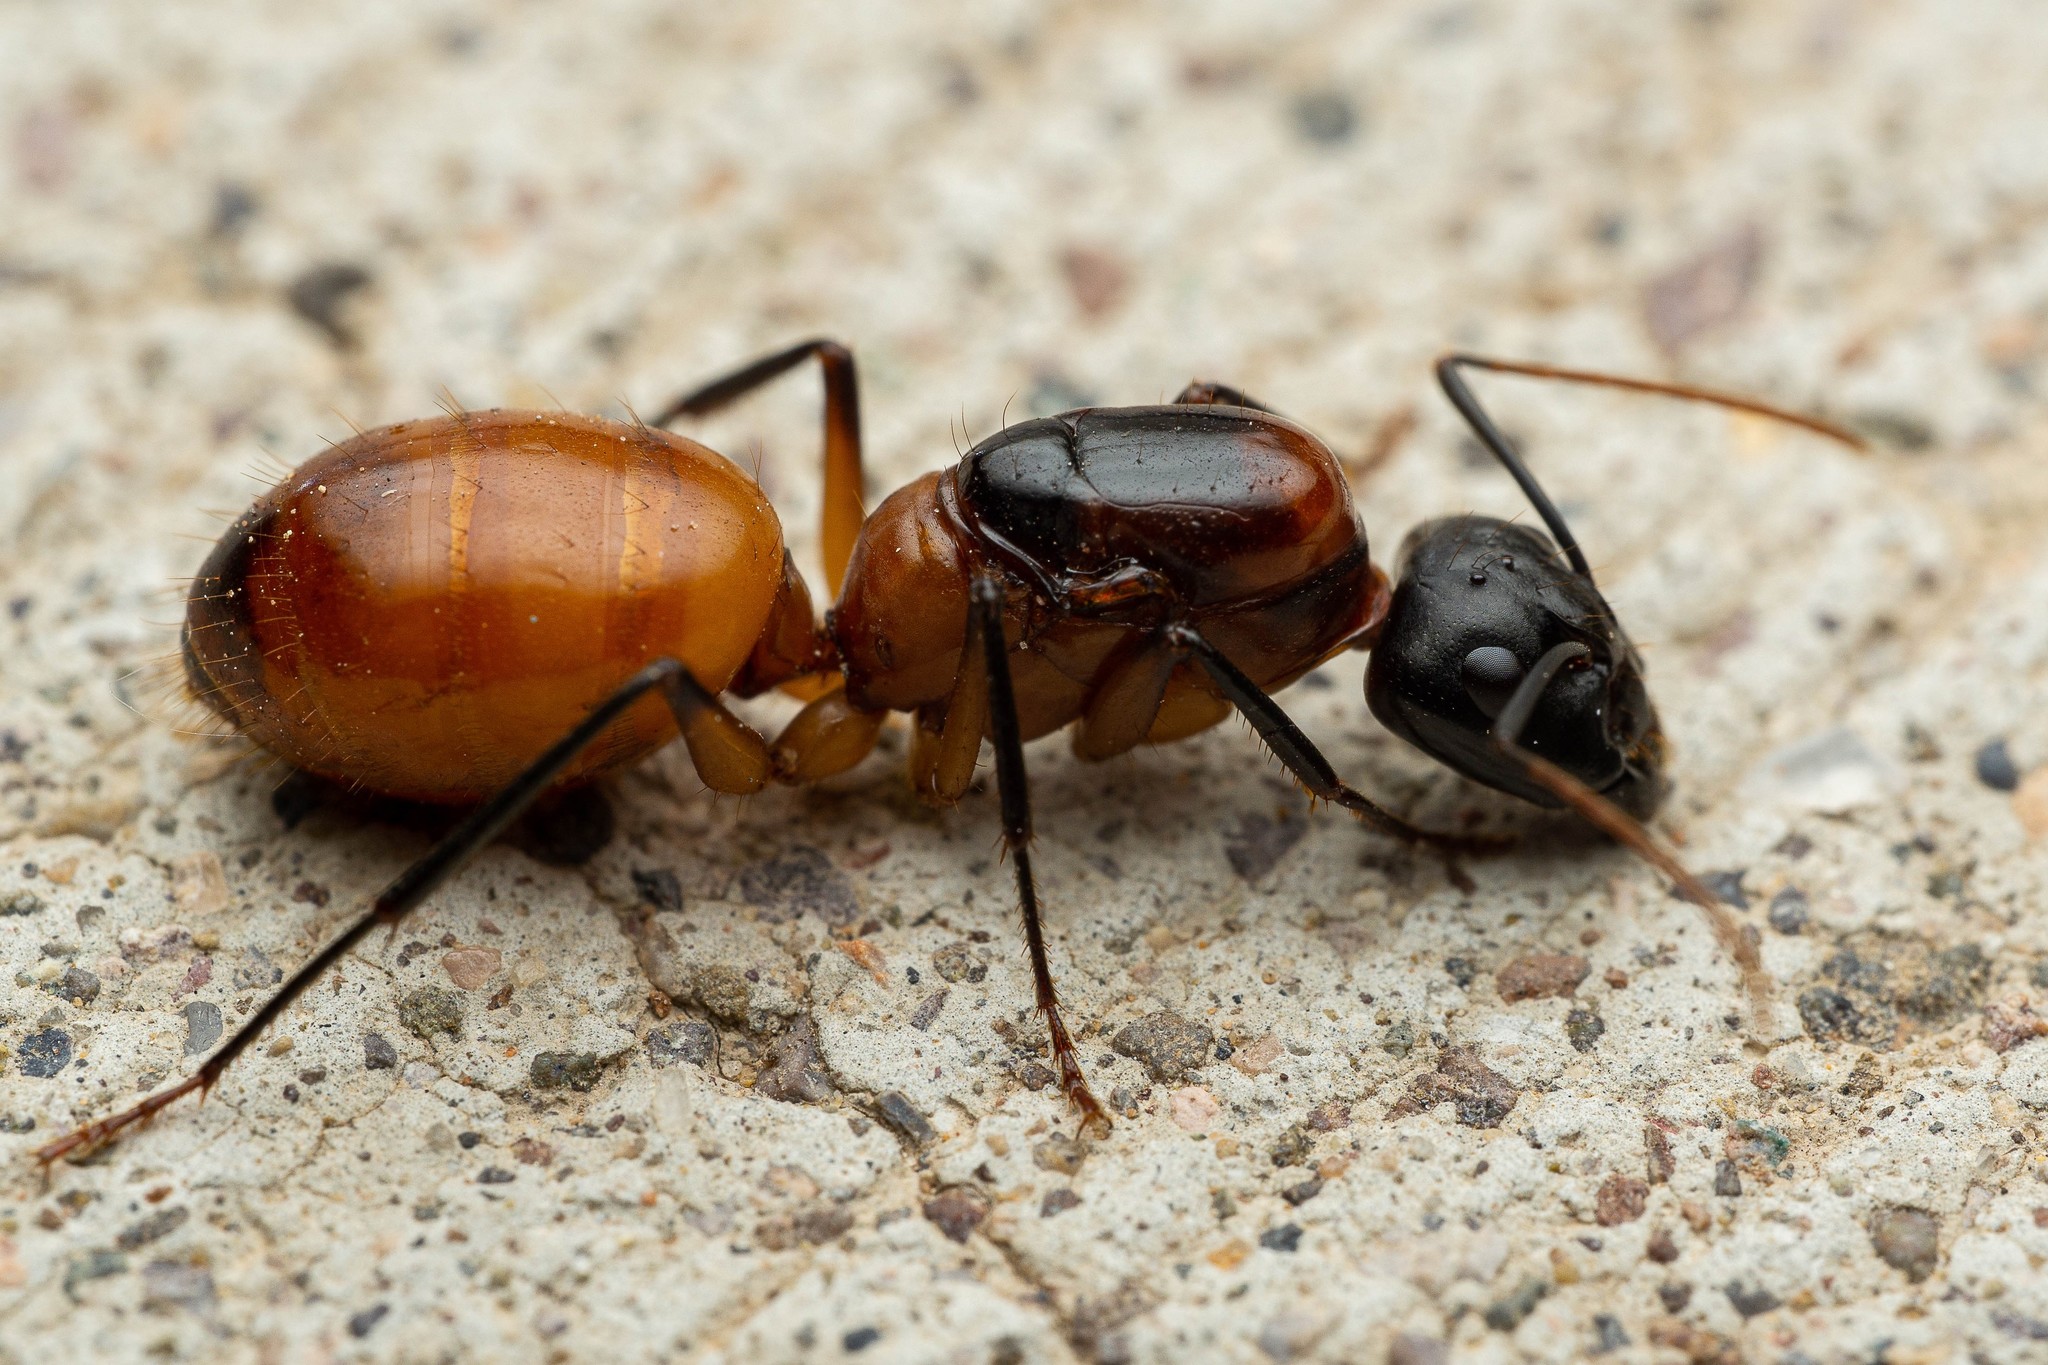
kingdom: Animalia
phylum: Arthropoda
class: Insecta
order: Hymenoptera
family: Formicidae
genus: Camponotus
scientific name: Camponotus ocreatus
